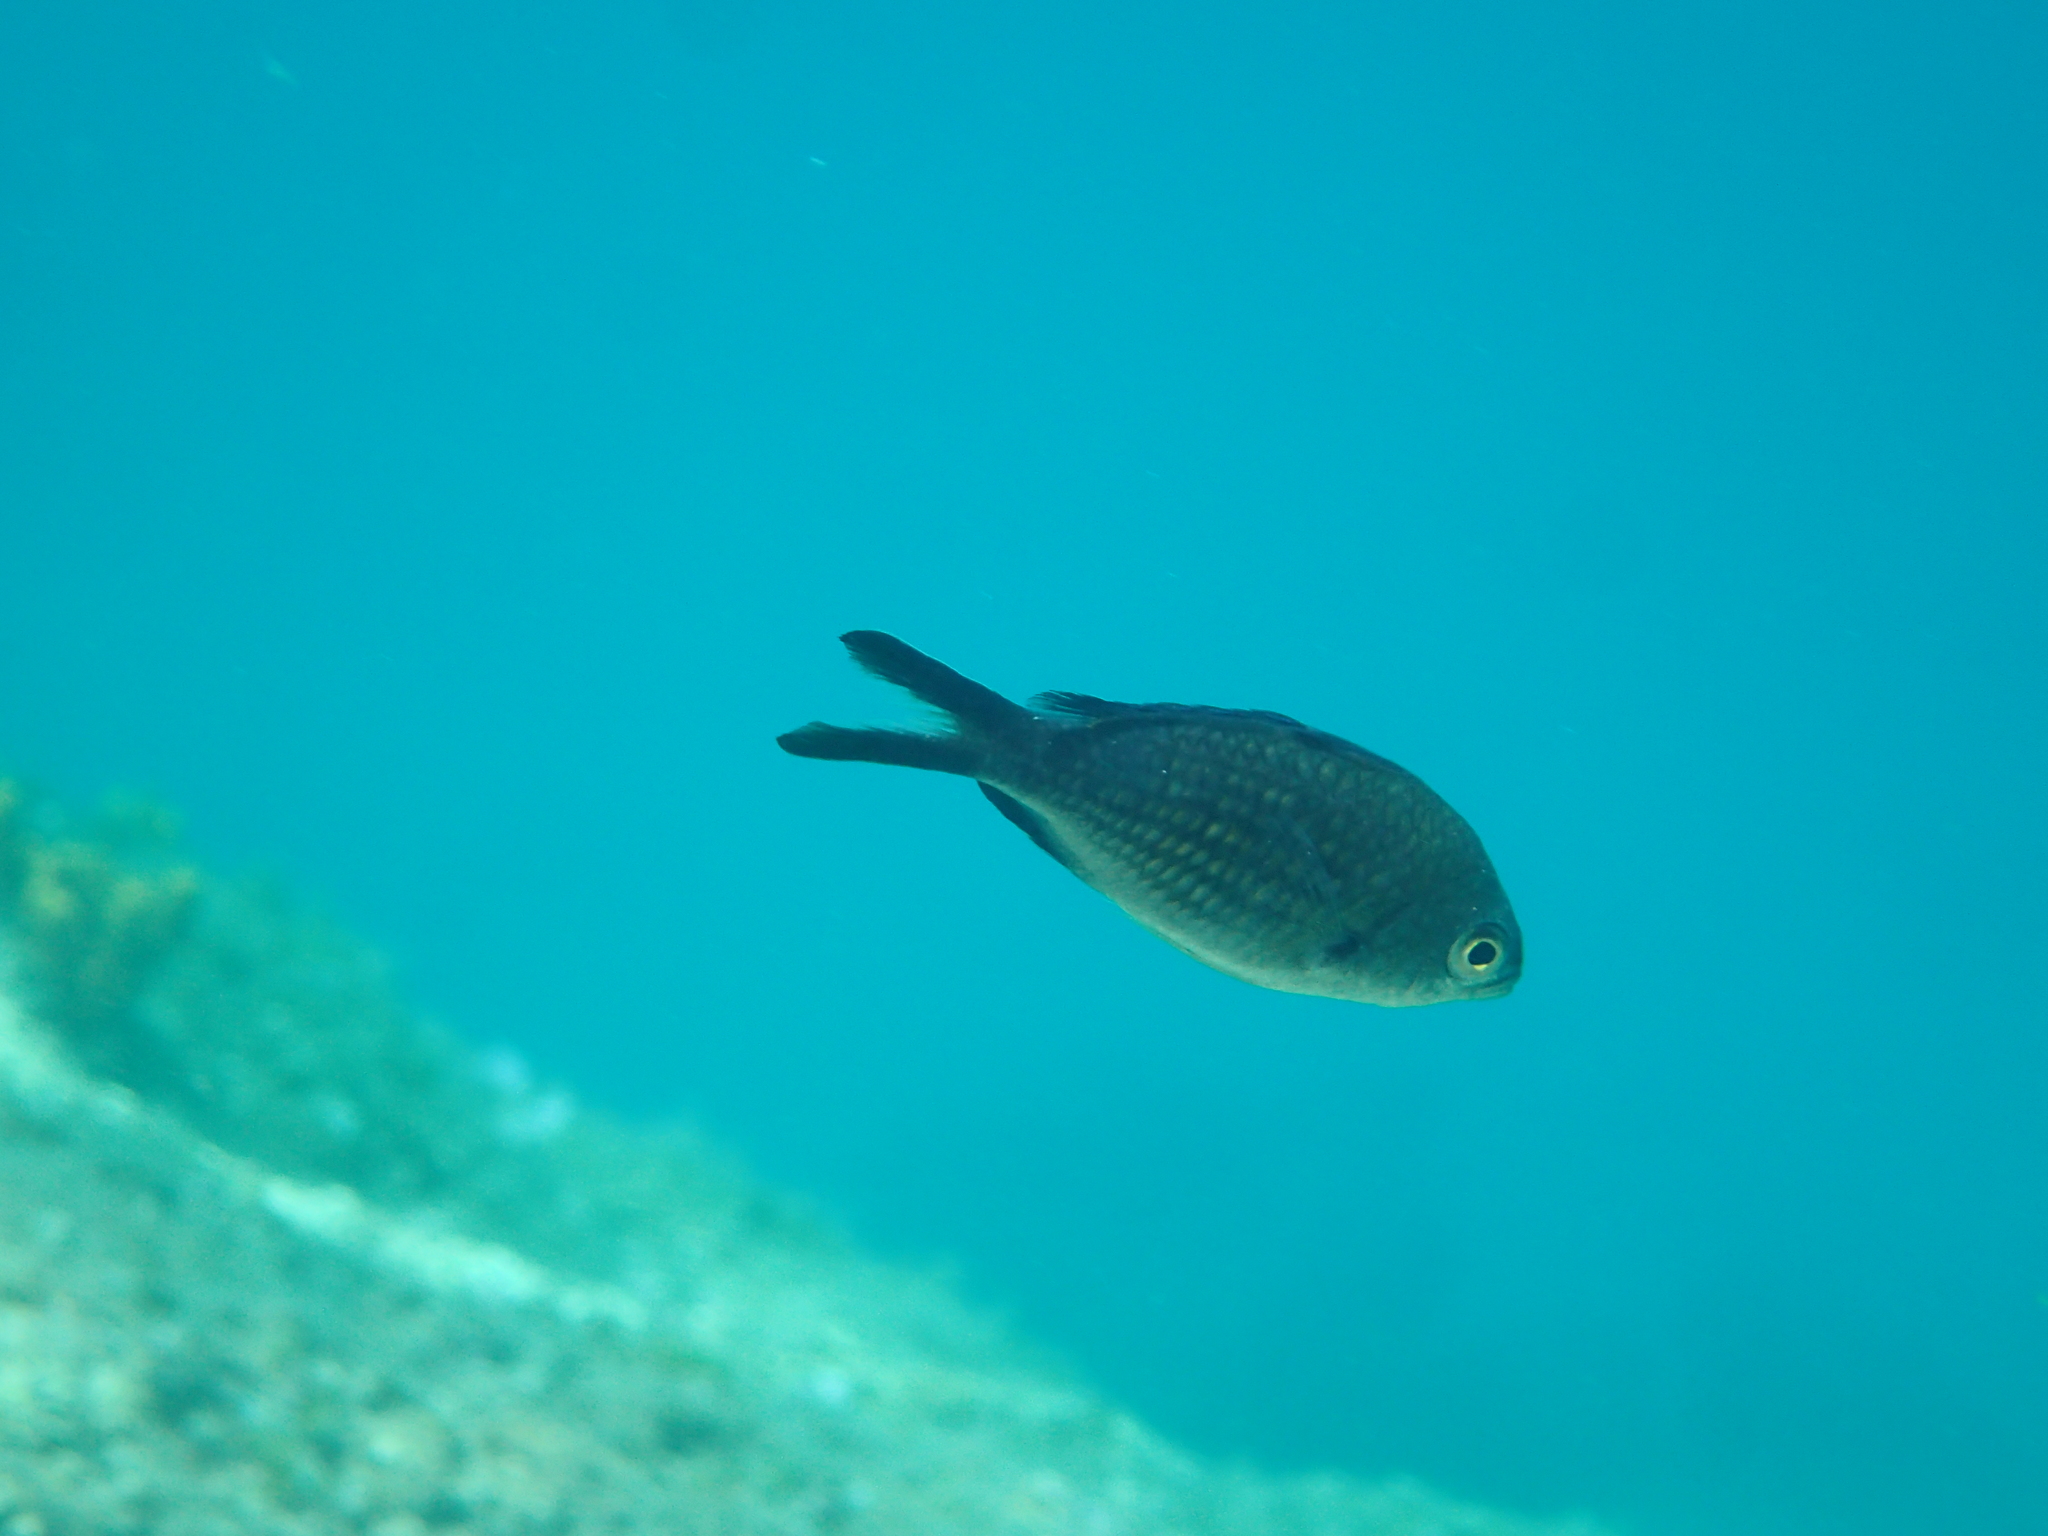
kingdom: Animalia
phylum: Chordata
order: Perciformes
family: Pomacentridae
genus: Chromis
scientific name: Chromis chromis
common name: Damselfish
